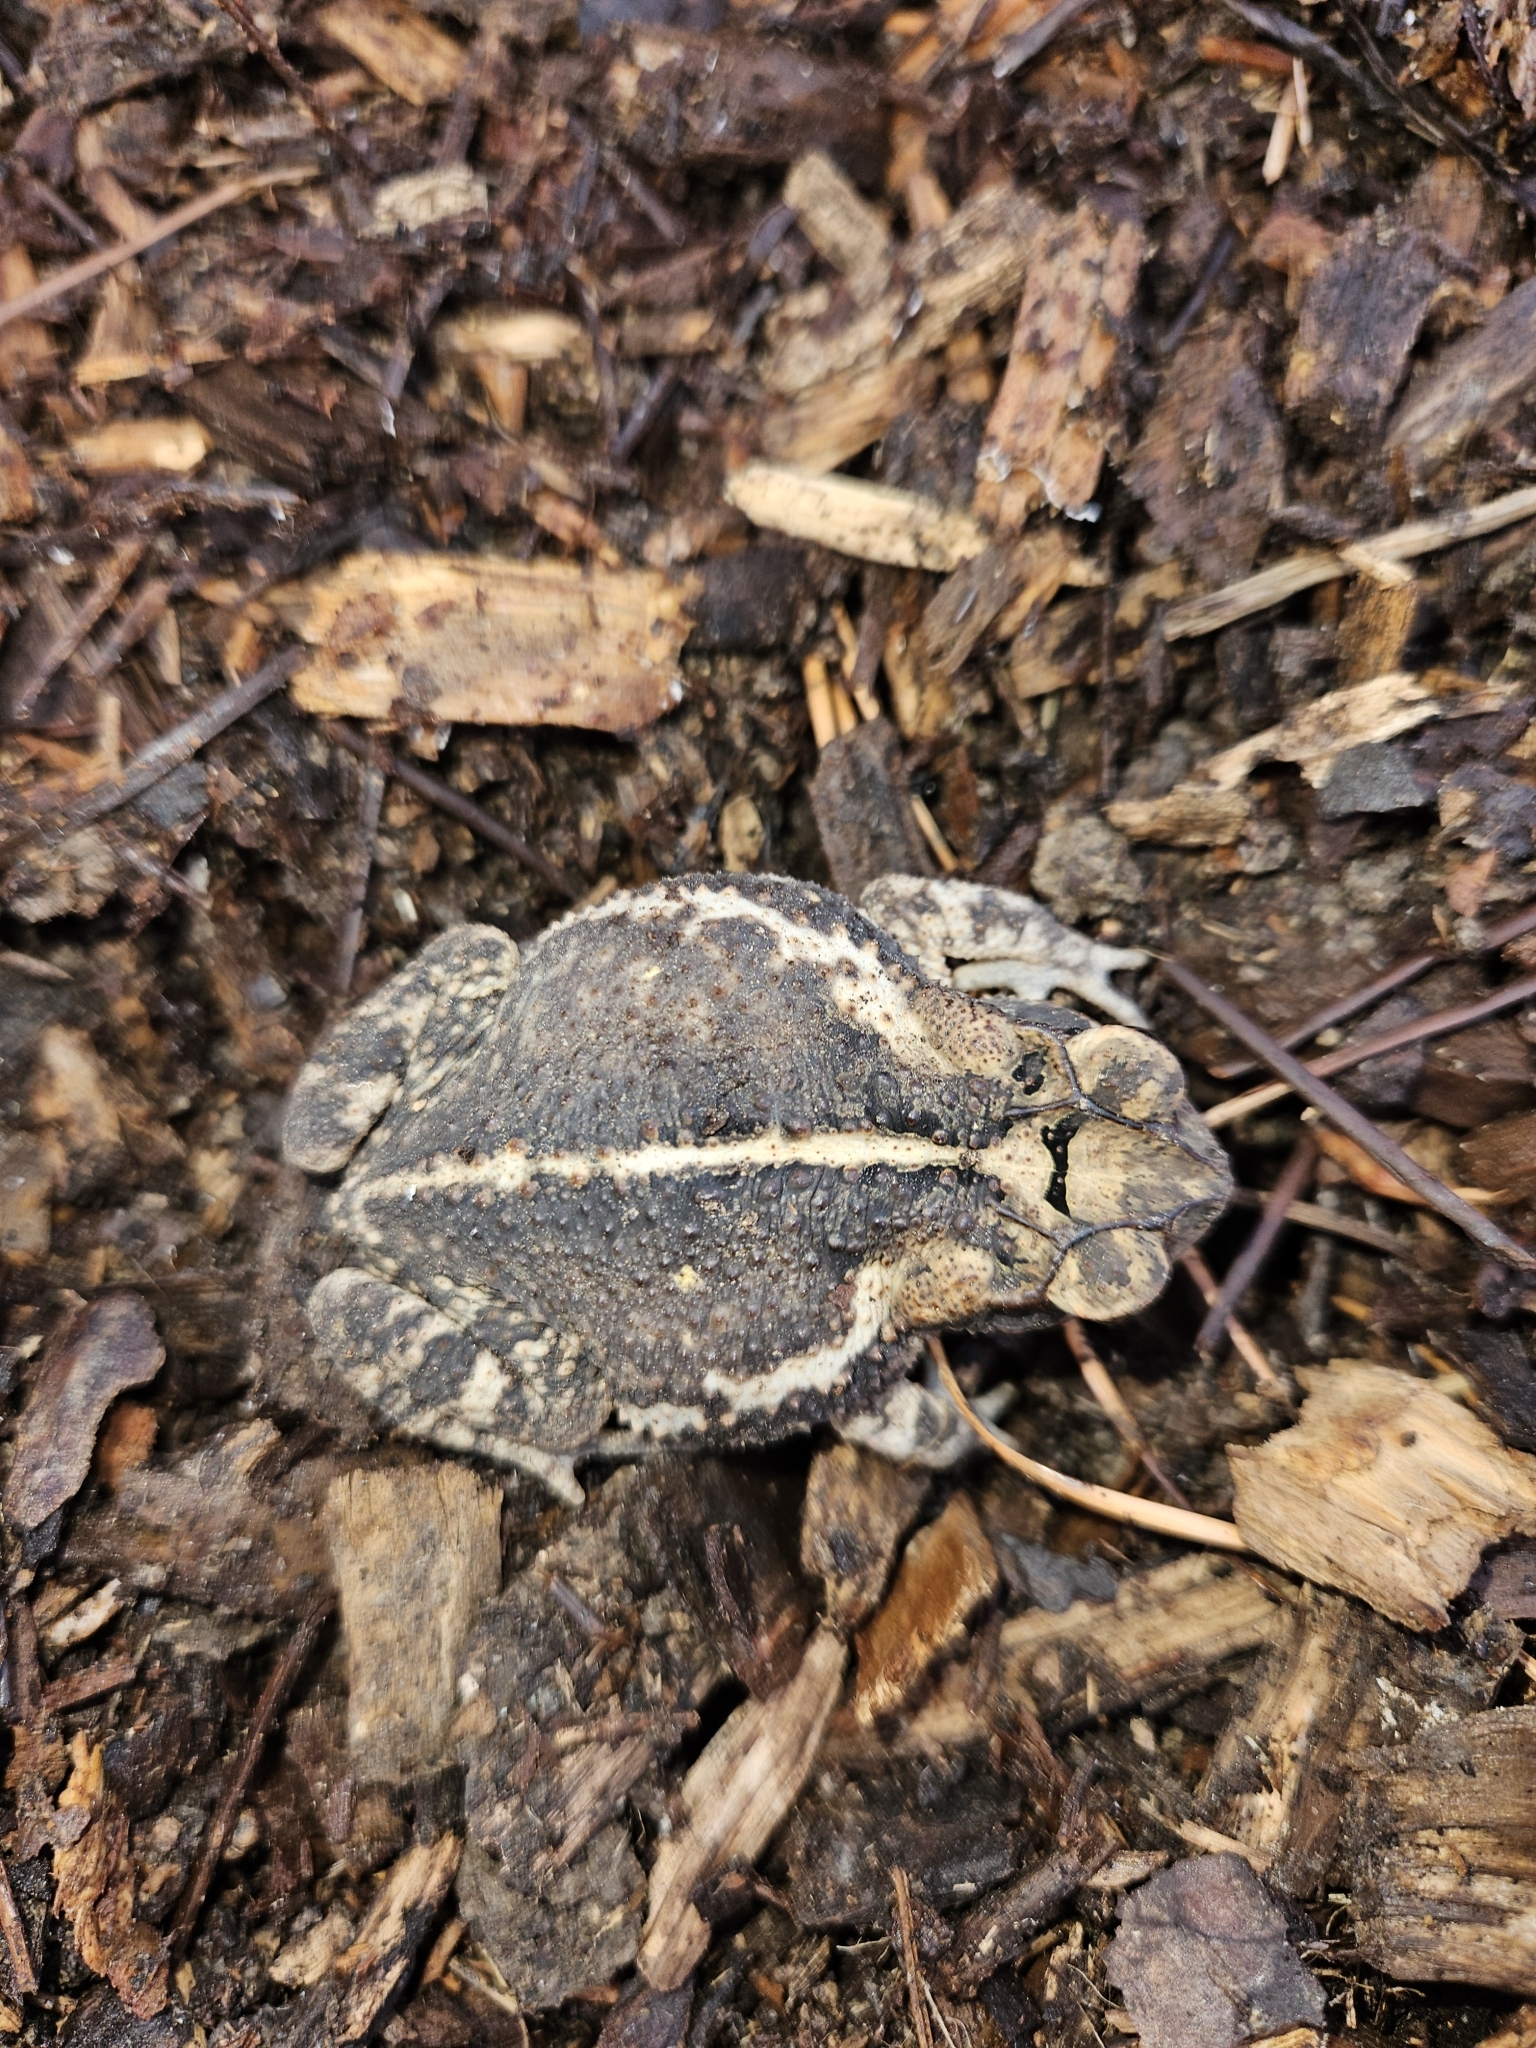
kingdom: Animalia
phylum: Chordata
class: Amphibia
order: Anura
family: Bufonidae
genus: Incilius
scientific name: Incilius nebulifer
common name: Gulf coast toad
